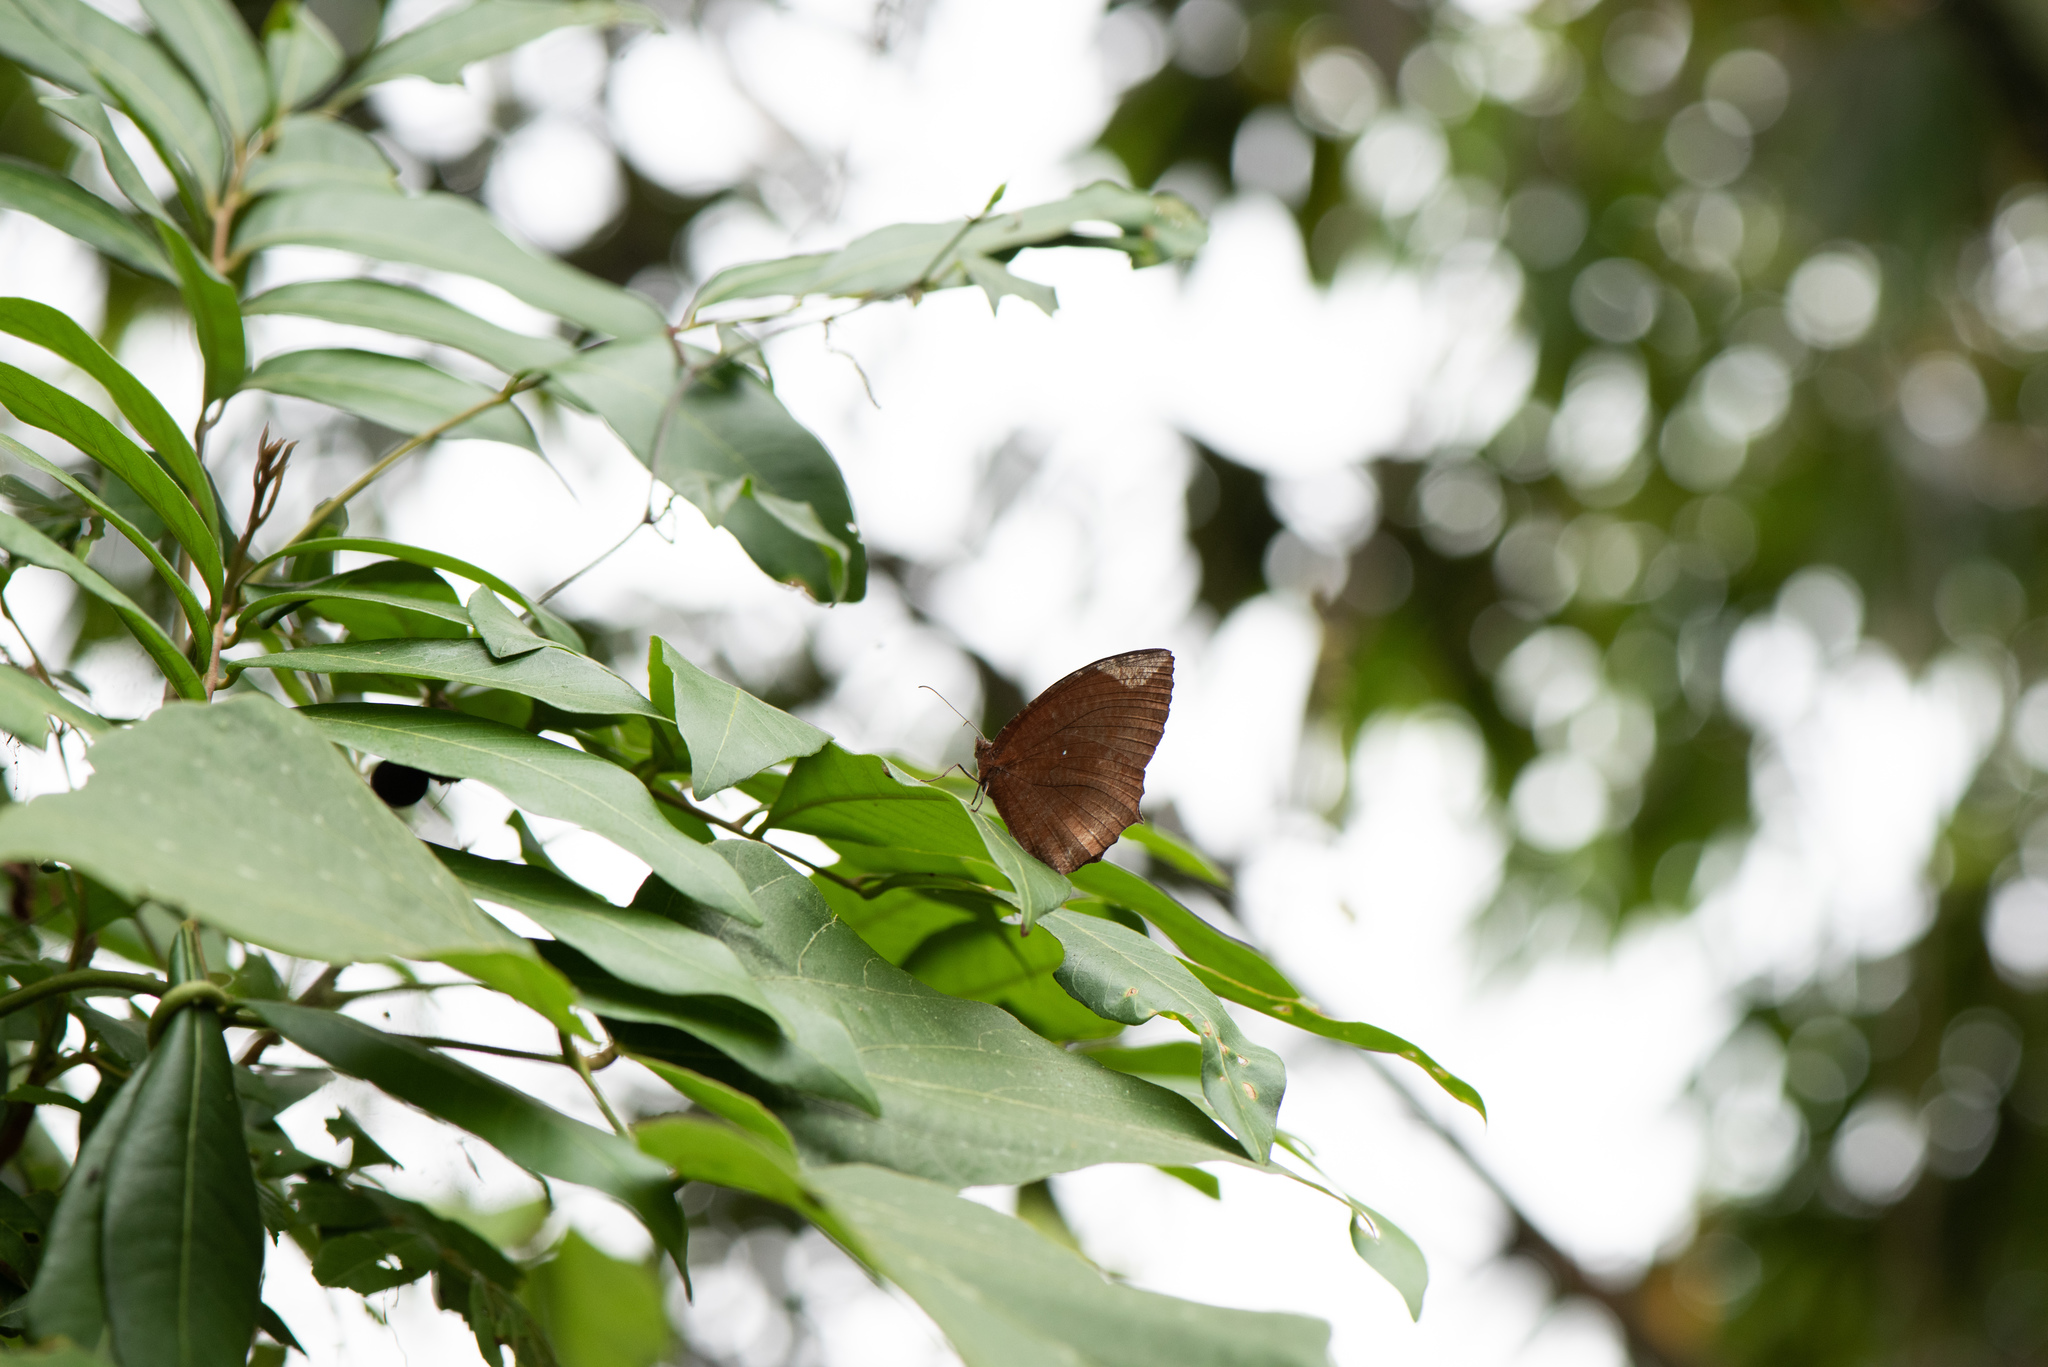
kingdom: Animalia
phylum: Arthropoda
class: Insecta
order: Lepidoptera
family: Nymphalidae
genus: Elymnias
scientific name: Elymnias hypermnestra
